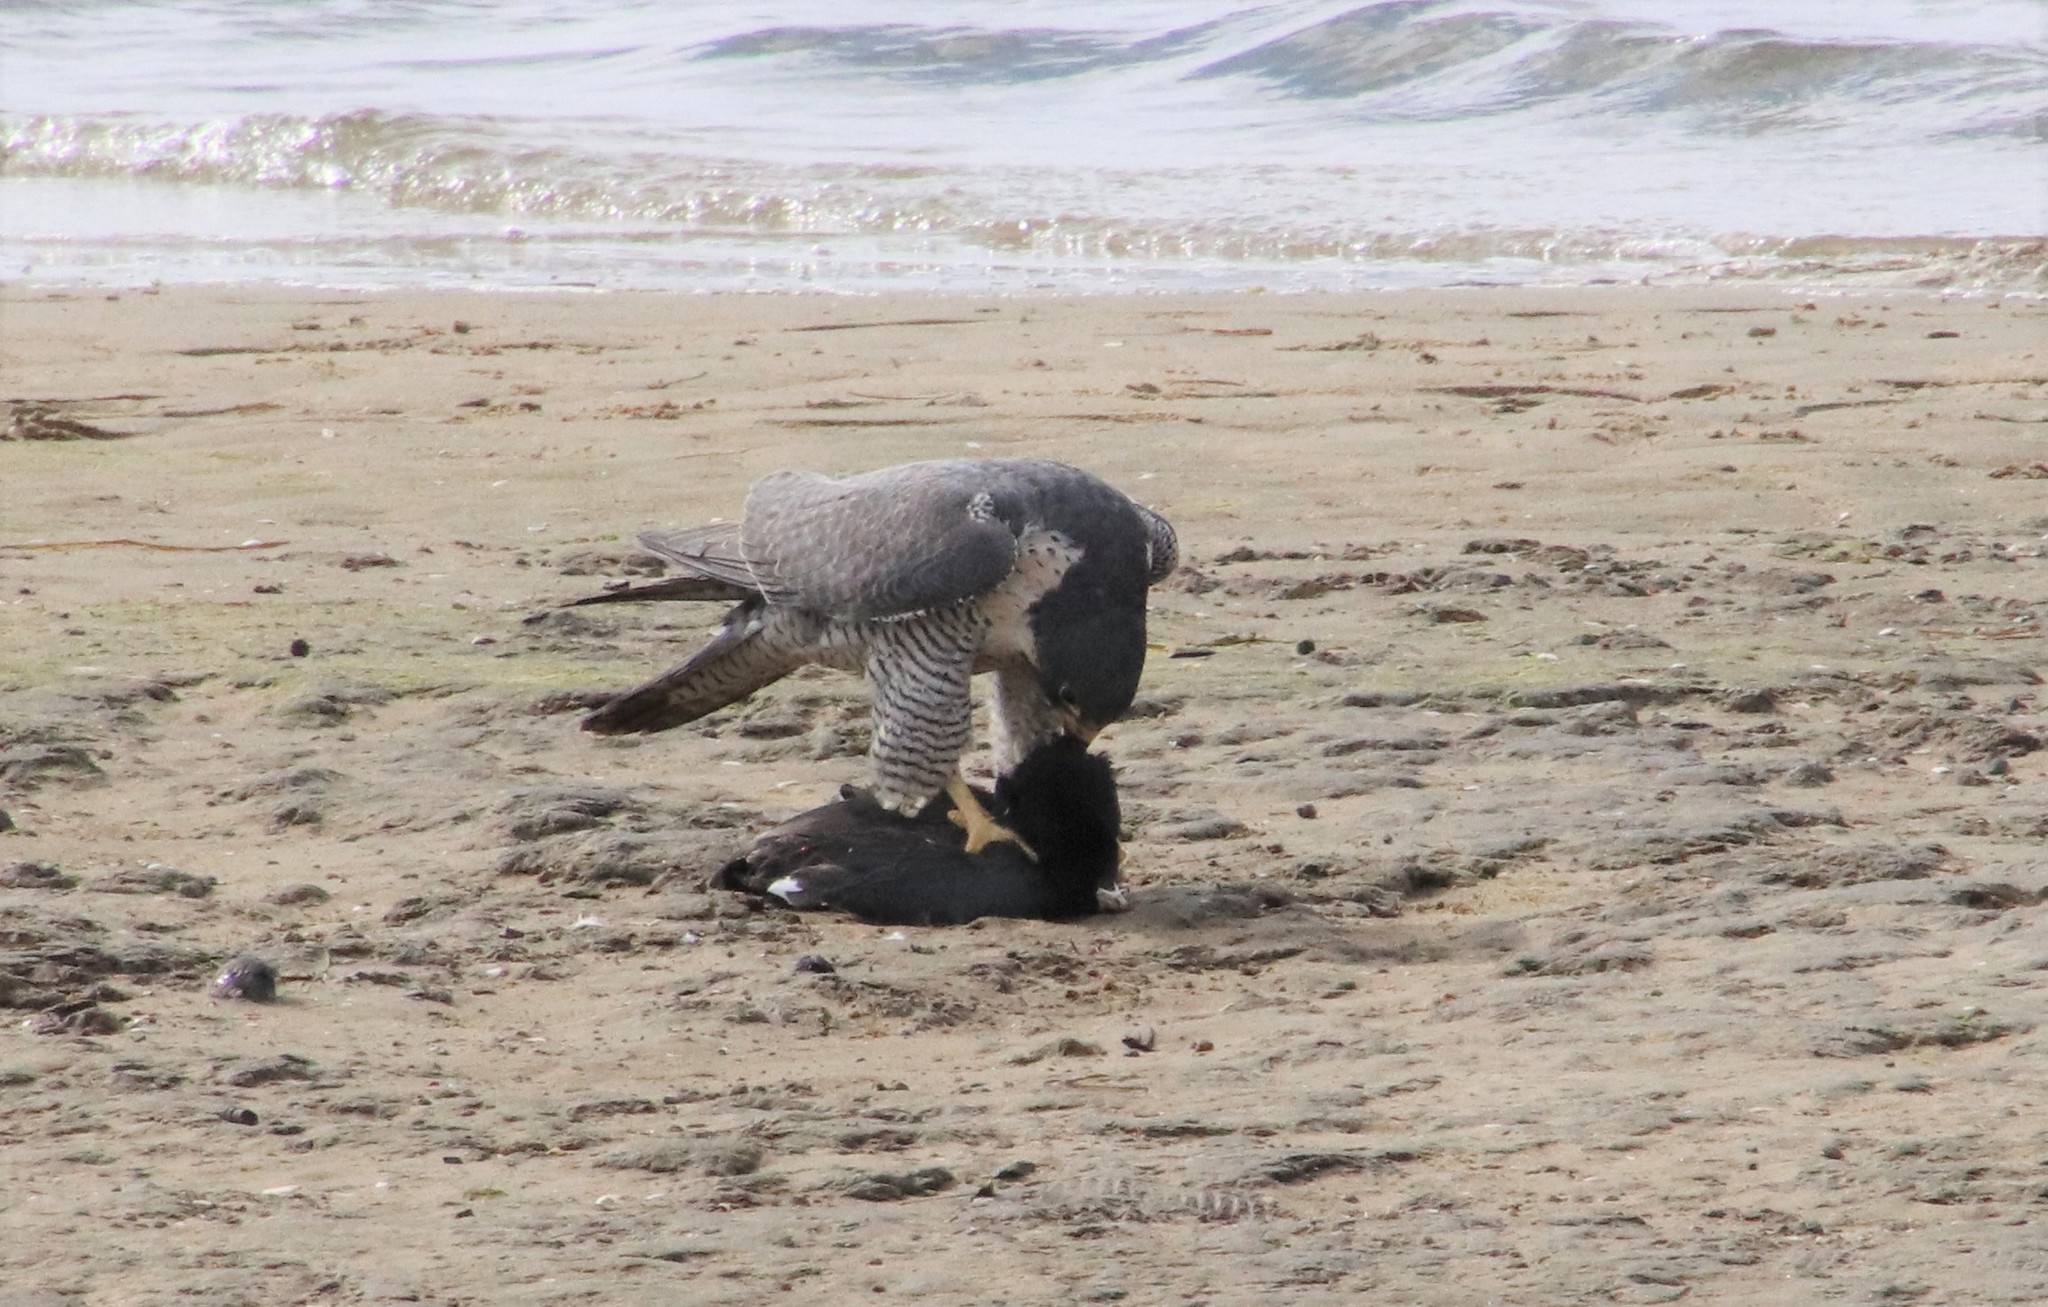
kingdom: Animalia
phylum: Chordata
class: Aves
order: Gruiformes
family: Rallidae
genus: Fulica
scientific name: Fulica americana
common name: American coot
